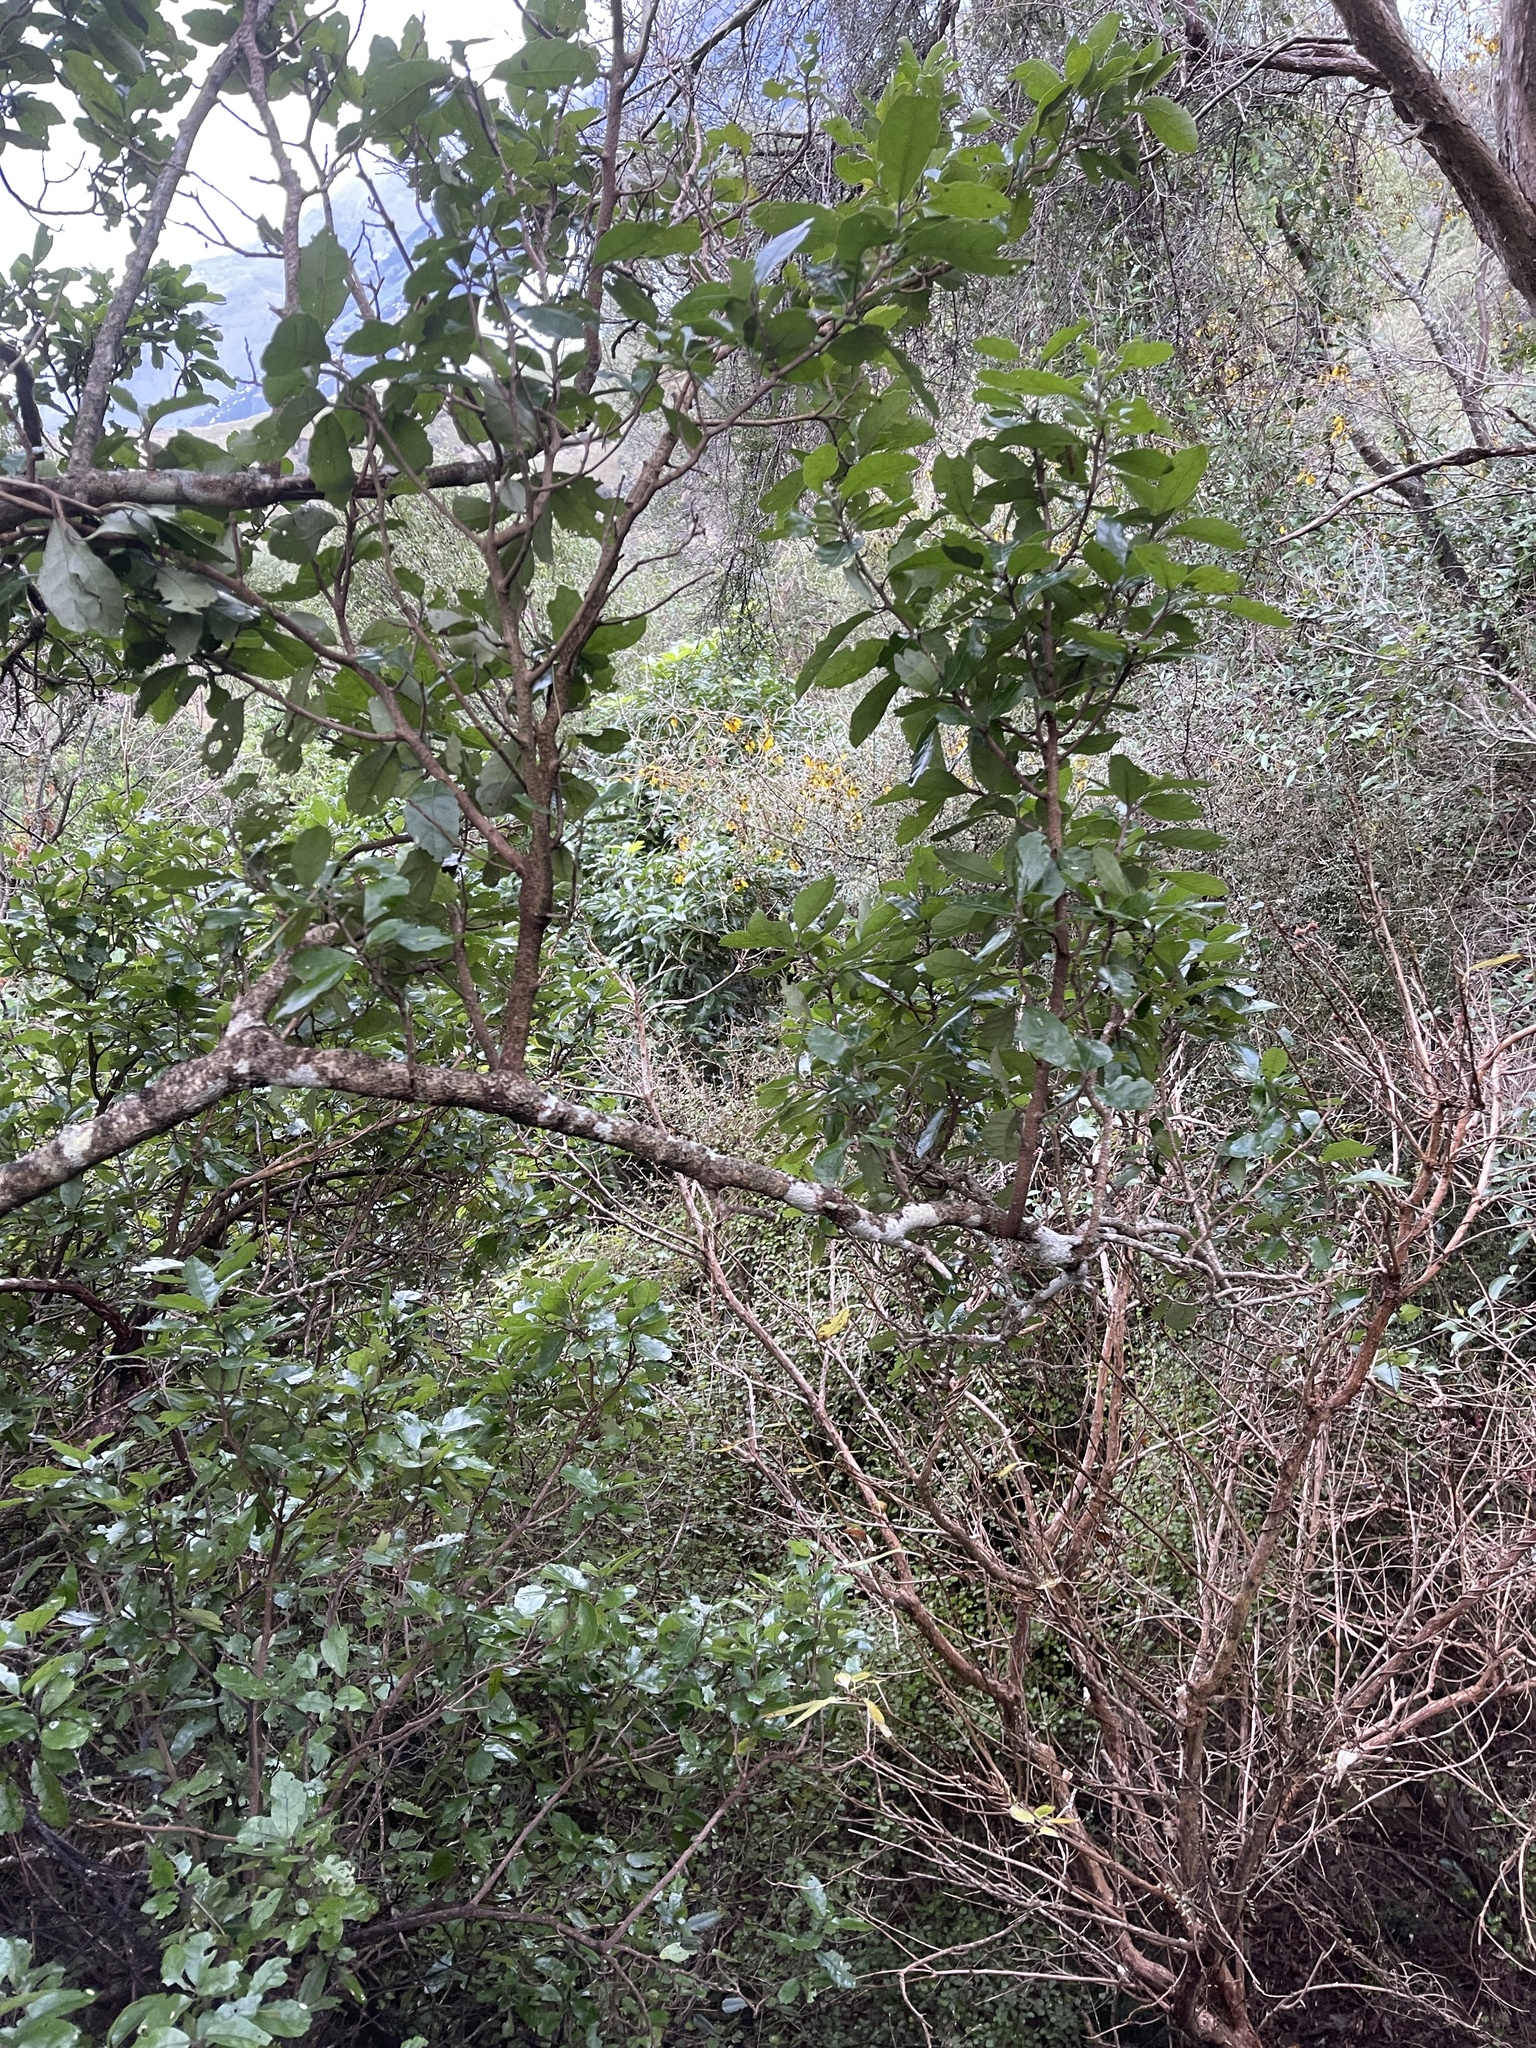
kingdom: Plantae
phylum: Tracheophyta
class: Magnoliopsida
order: Apiales
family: Pennantiaceae
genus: Pennantia
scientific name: Pennantia corymbosa
